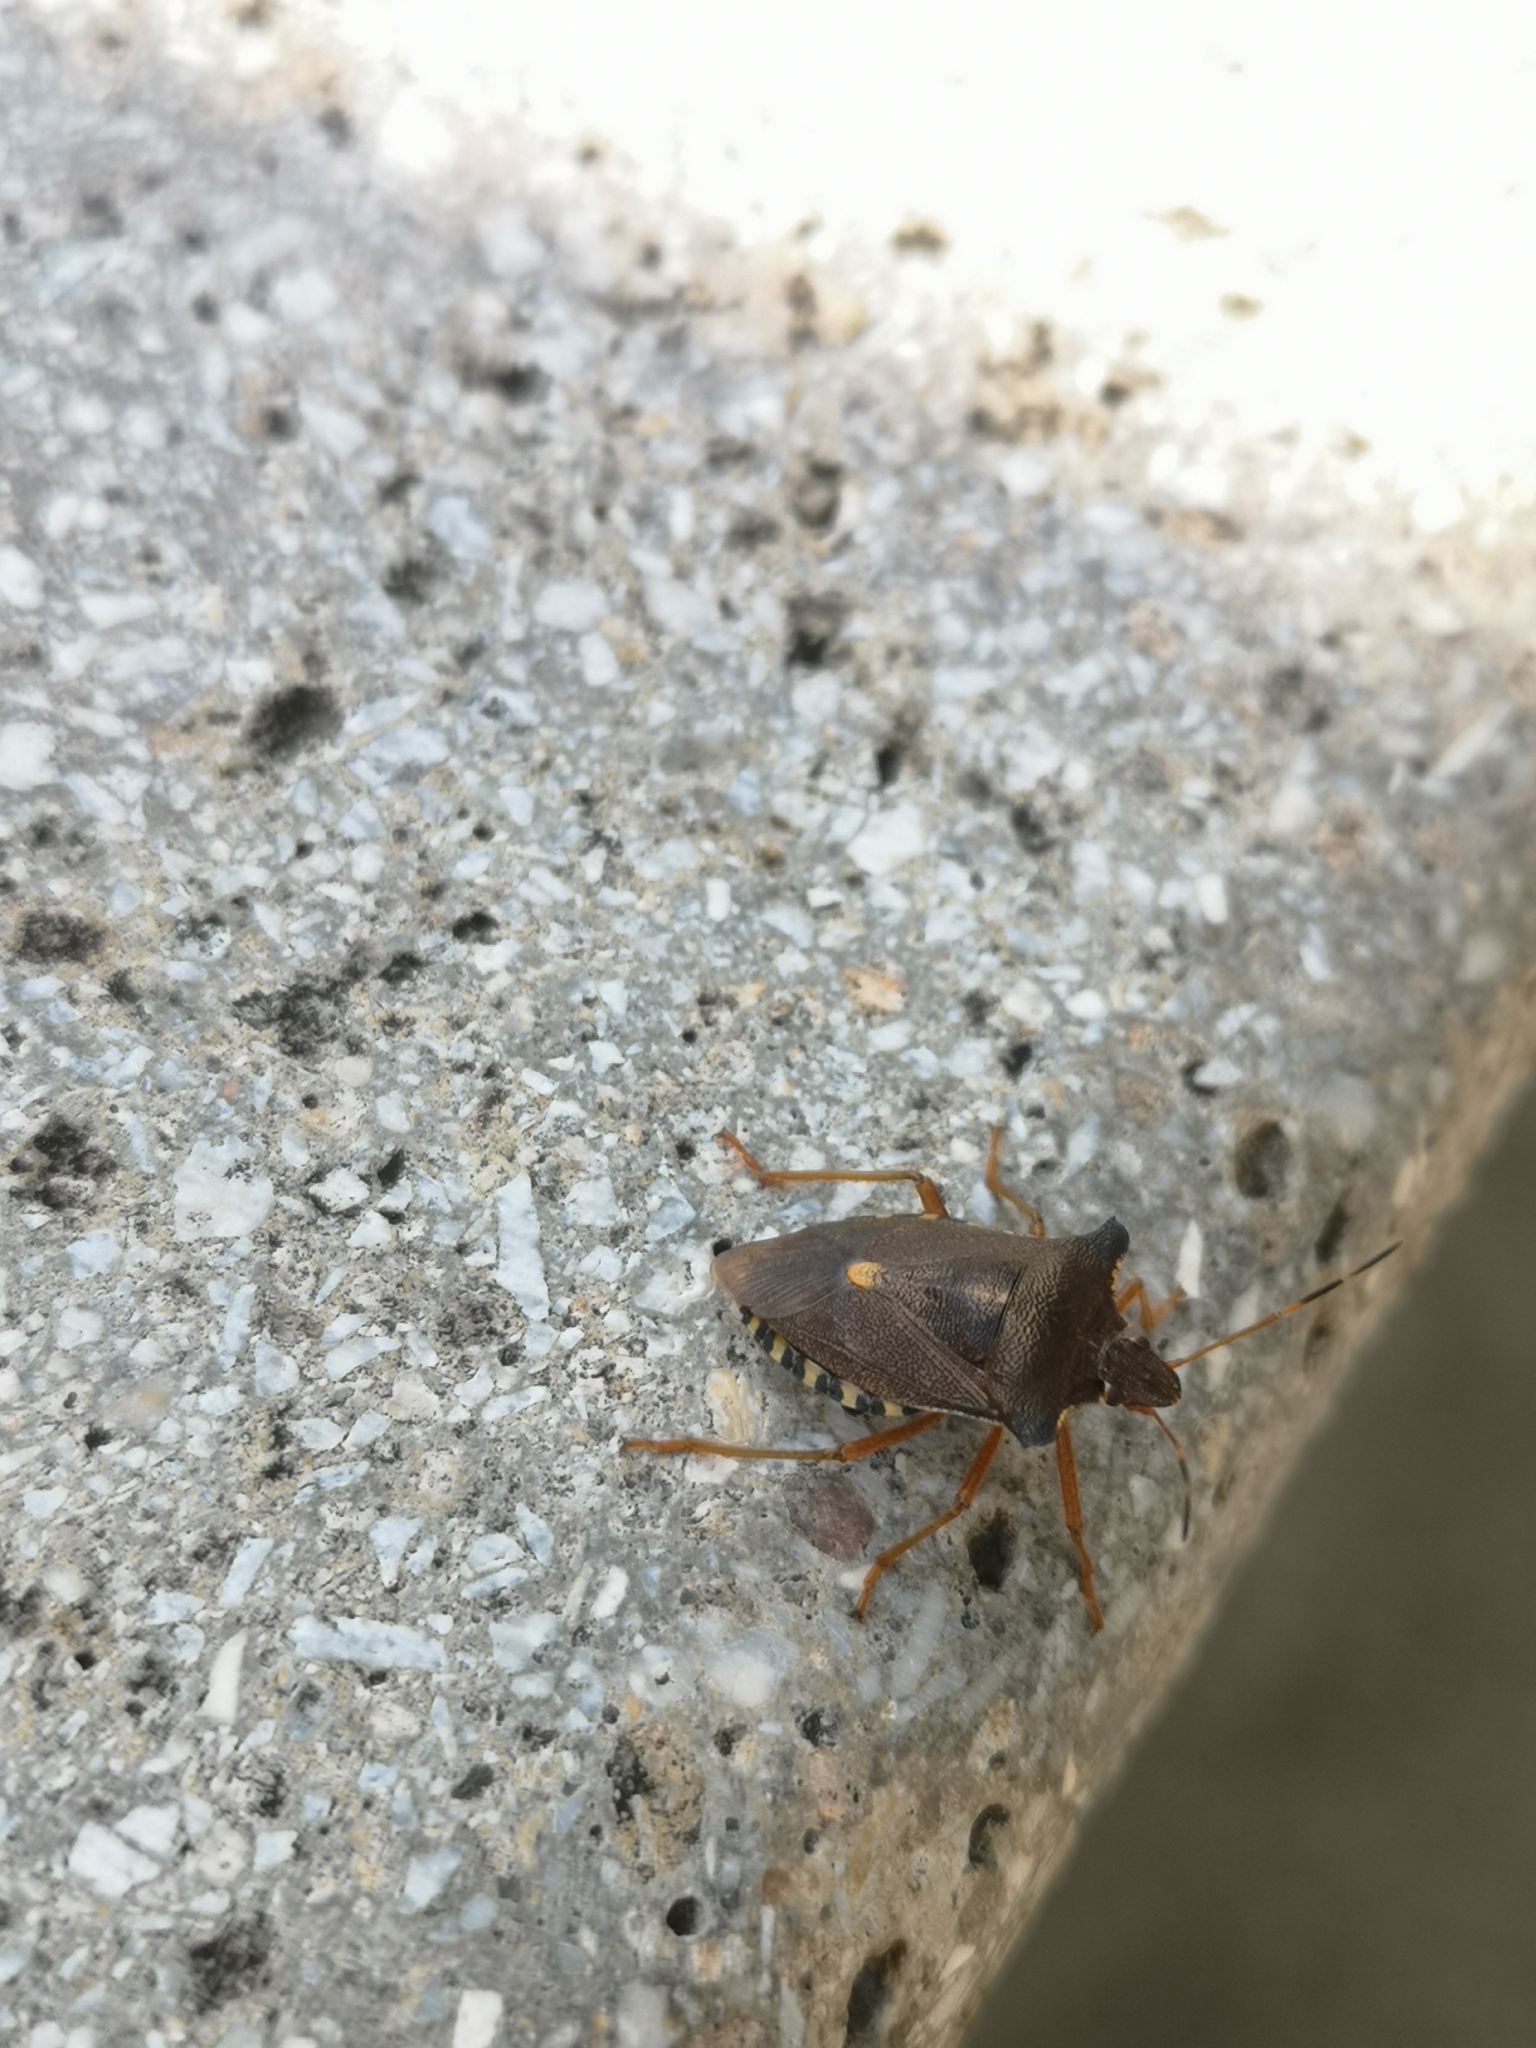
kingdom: Animalia
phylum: Arthropoda
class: Insecta
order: Hemiptera
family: Pentatomidae
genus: Pentatoma
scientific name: Pentatoma rufipes
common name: Forest bug
